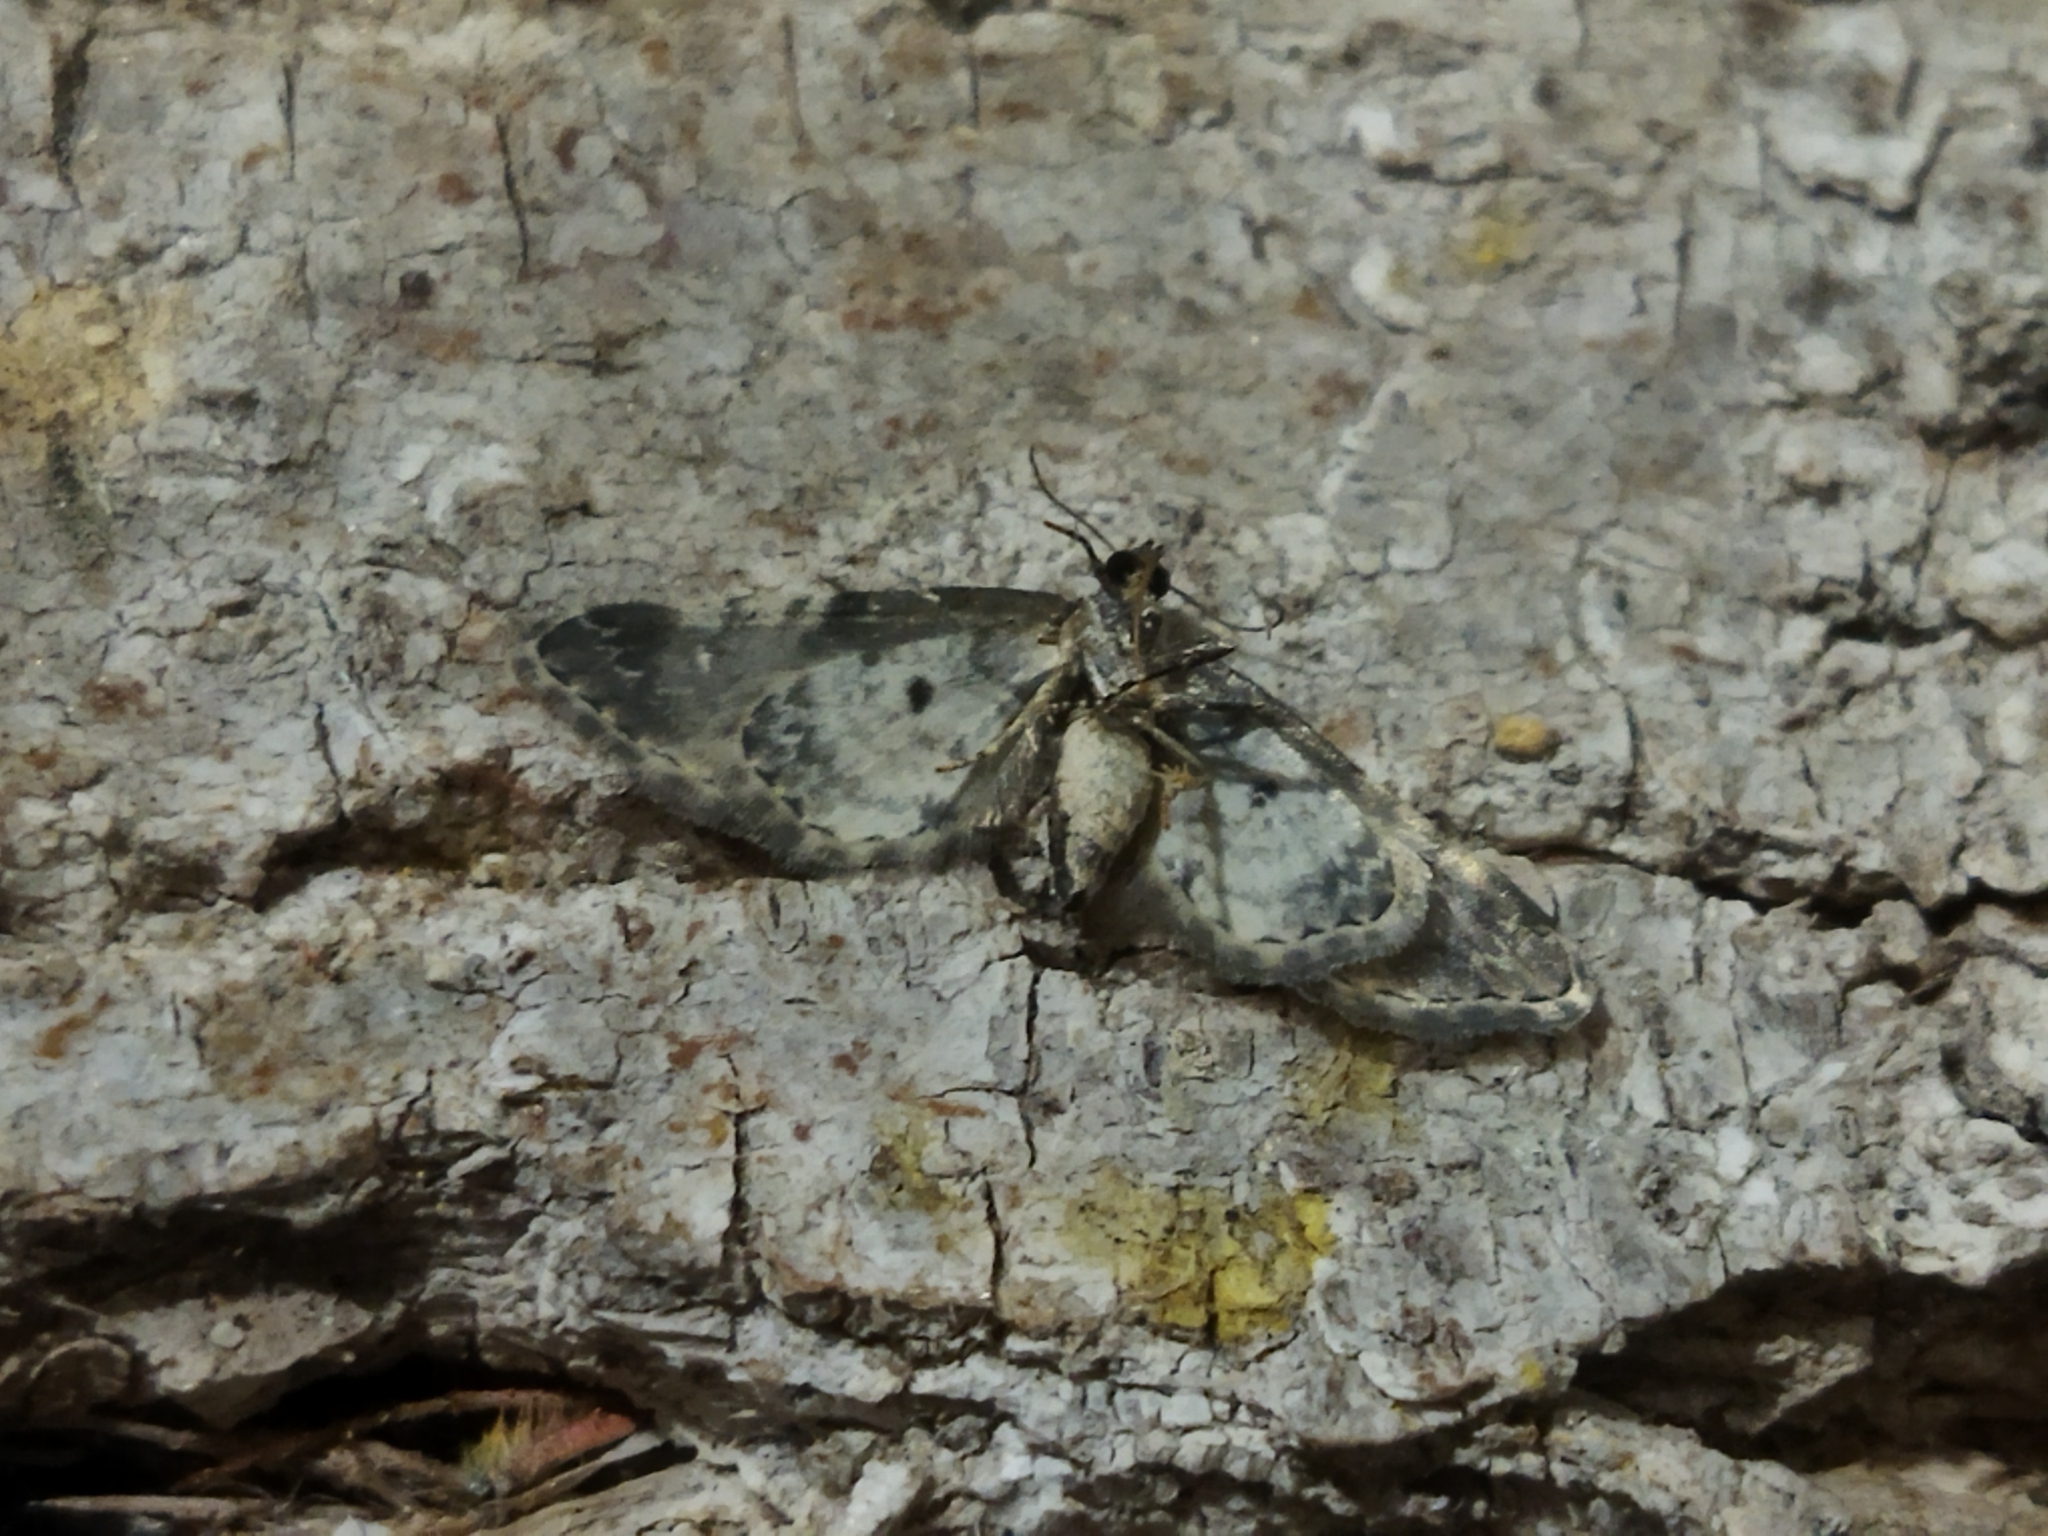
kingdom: Animalia
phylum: Arthropoda
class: Insecta
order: Lepidoptera
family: Geometridae
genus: Eupithecia
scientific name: Eupithecia extremata
